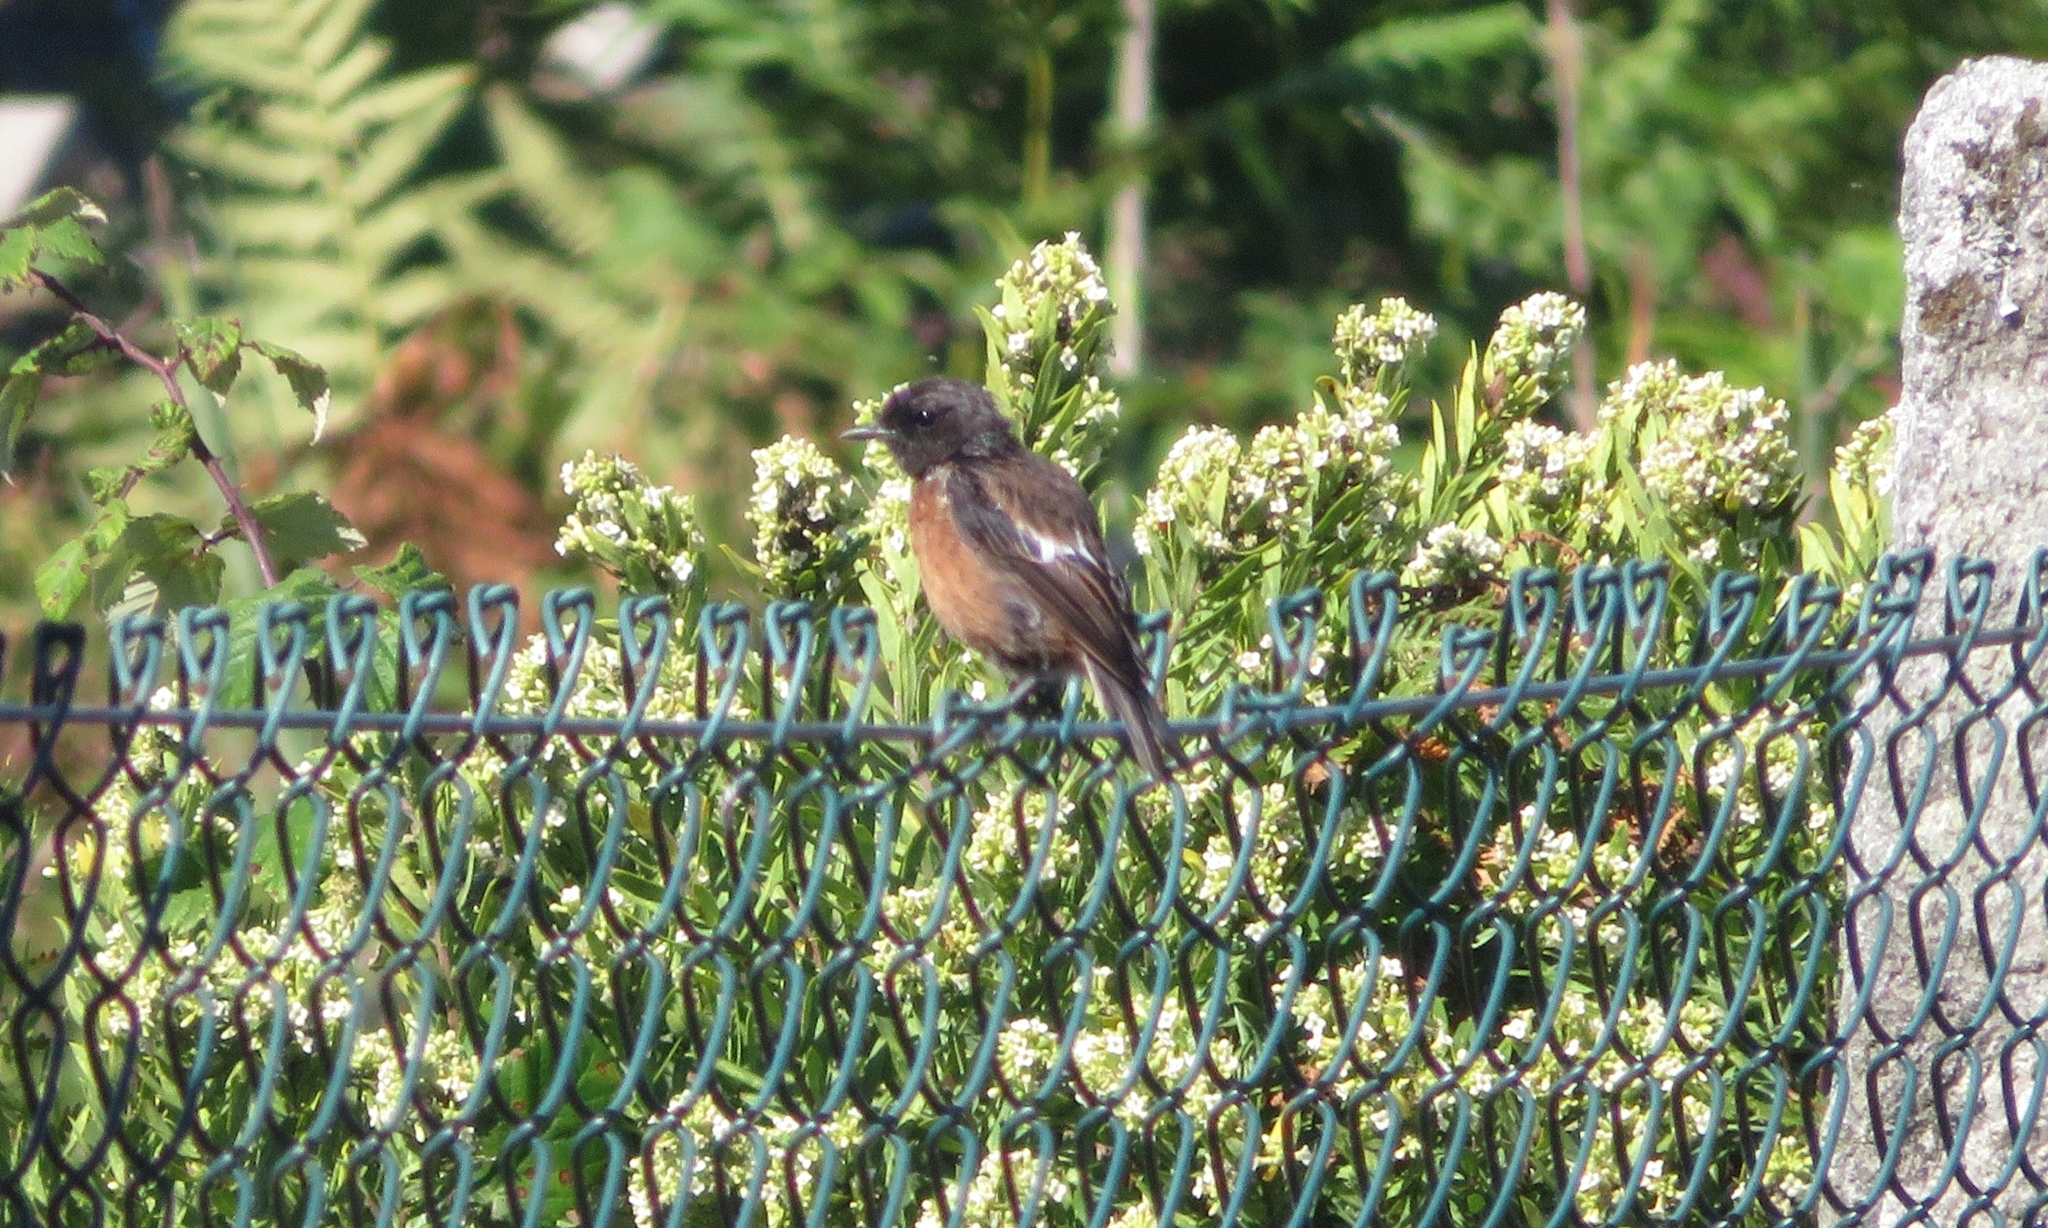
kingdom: Animalia
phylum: Chordata
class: Aves
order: Passeriformes
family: Muscicapidae
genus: Saxicola
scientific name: Saxicola rubicola
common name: European stonechat
